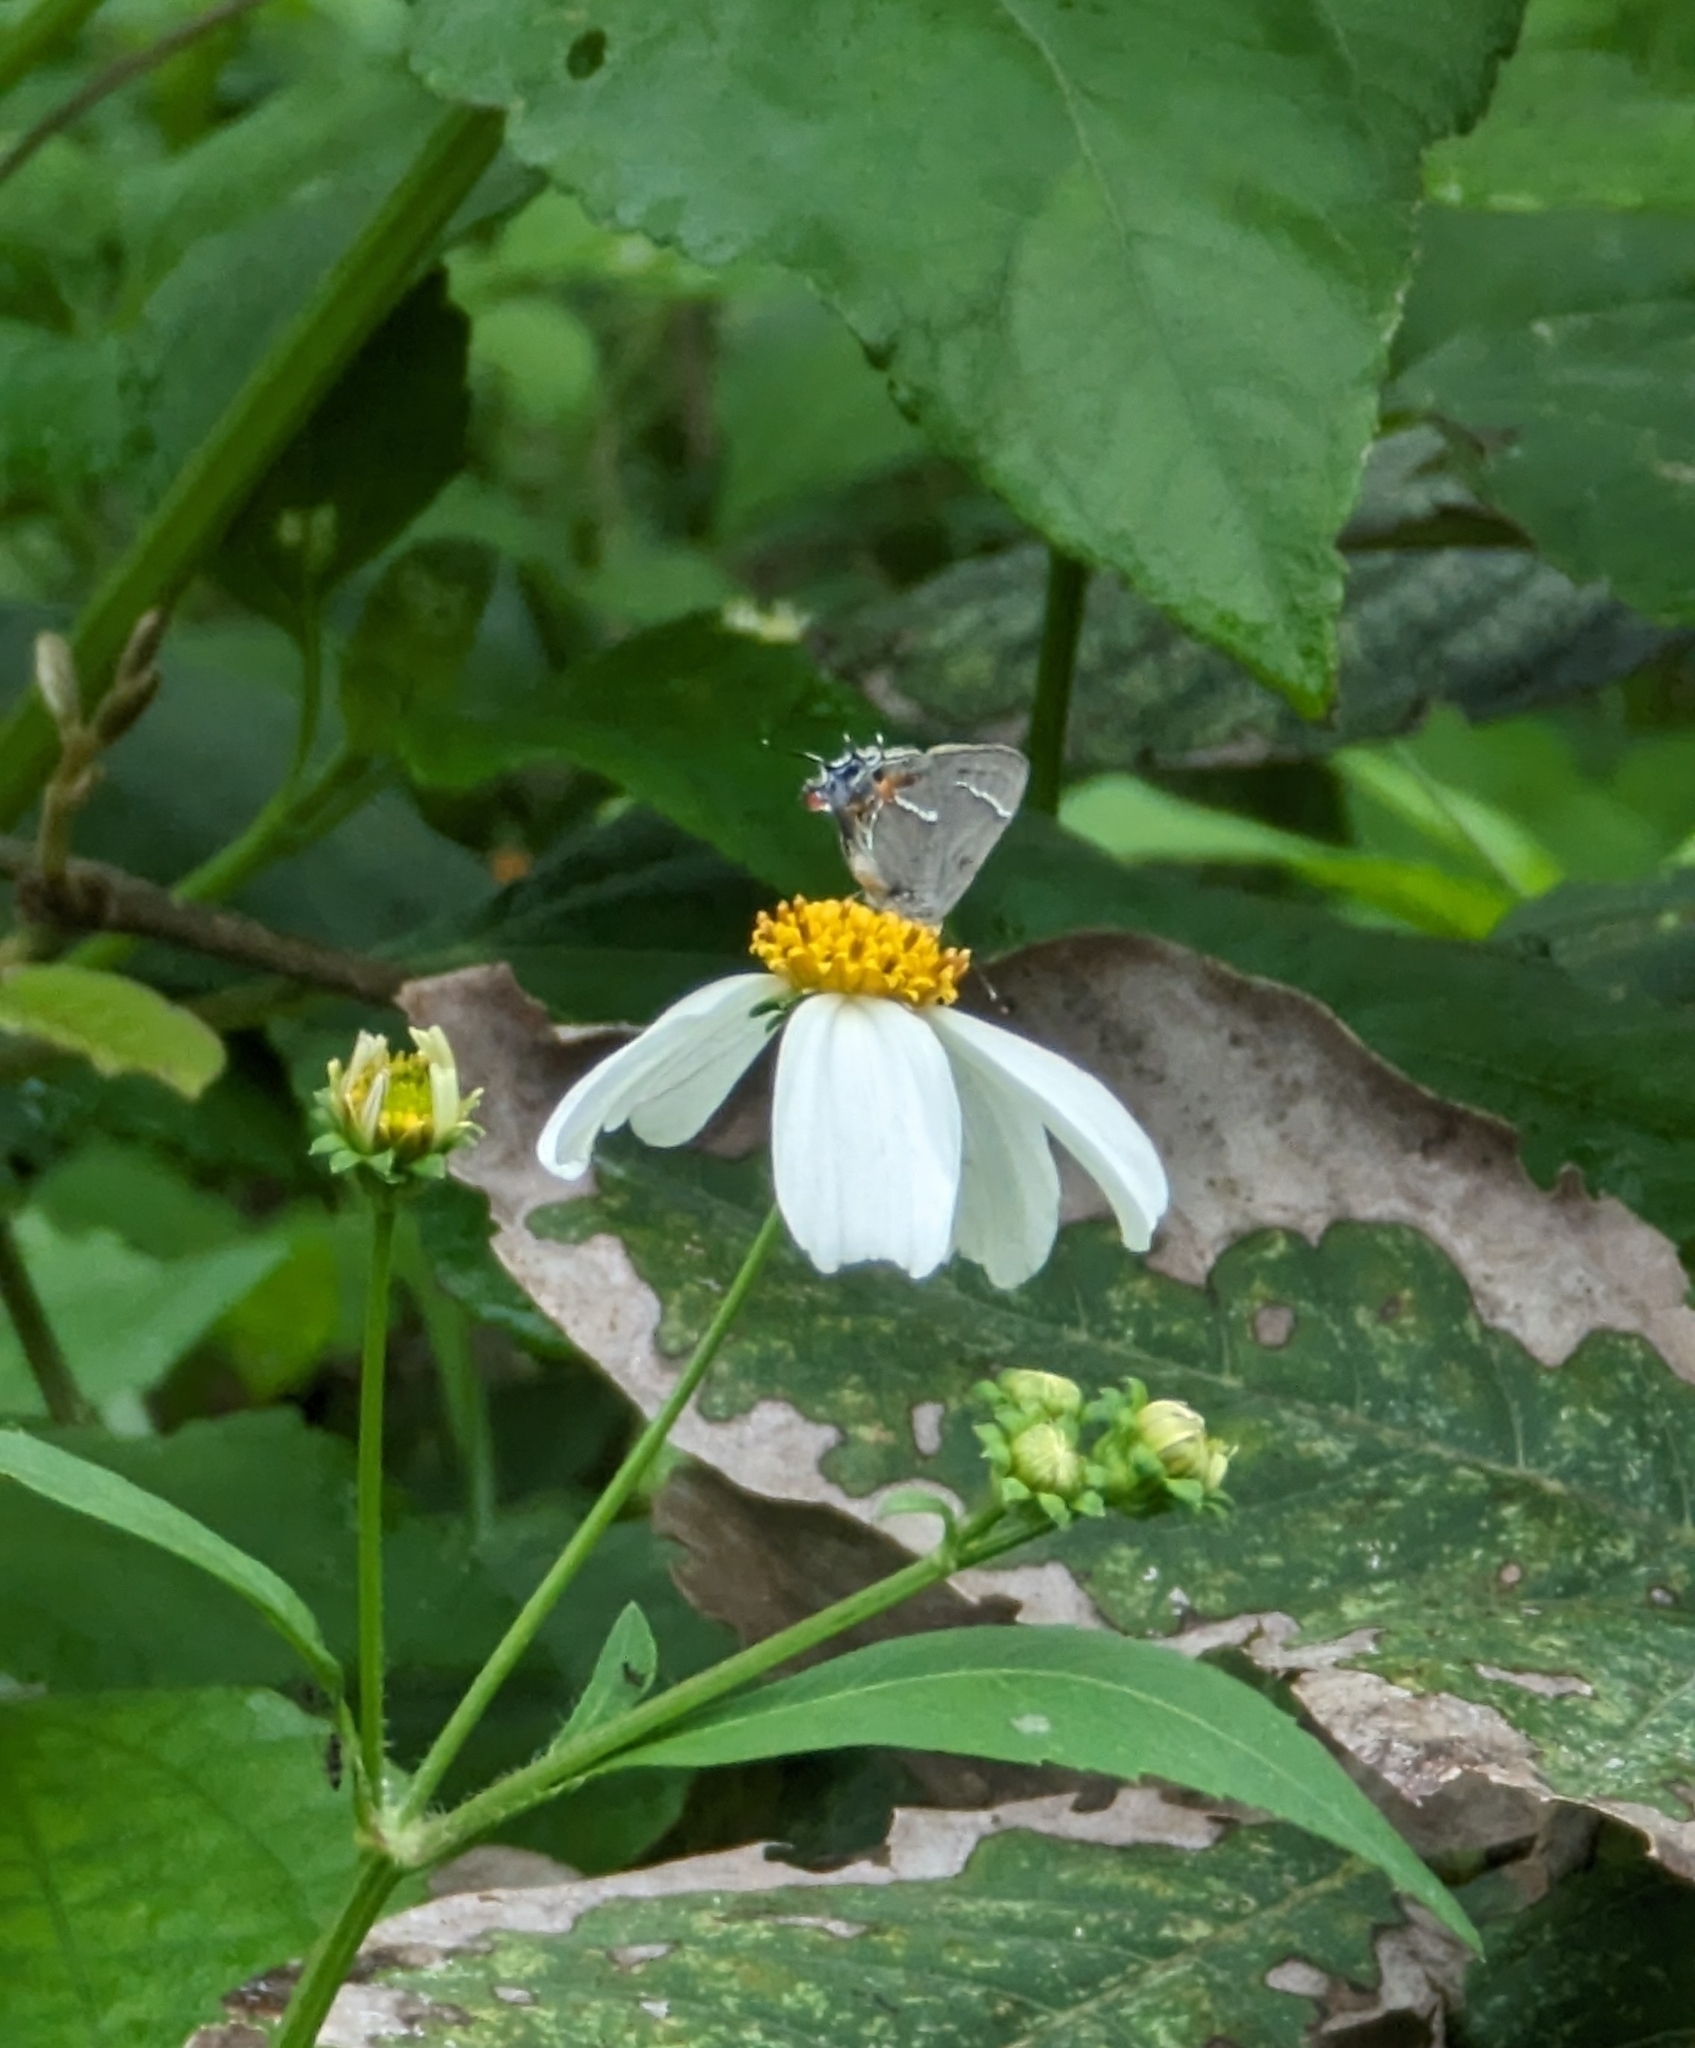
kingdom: Animalia
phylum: Arthropoda
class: Insecta
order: Lepidoptera
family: Lycaenidae
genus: Thecla
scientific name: Thecla martialis
